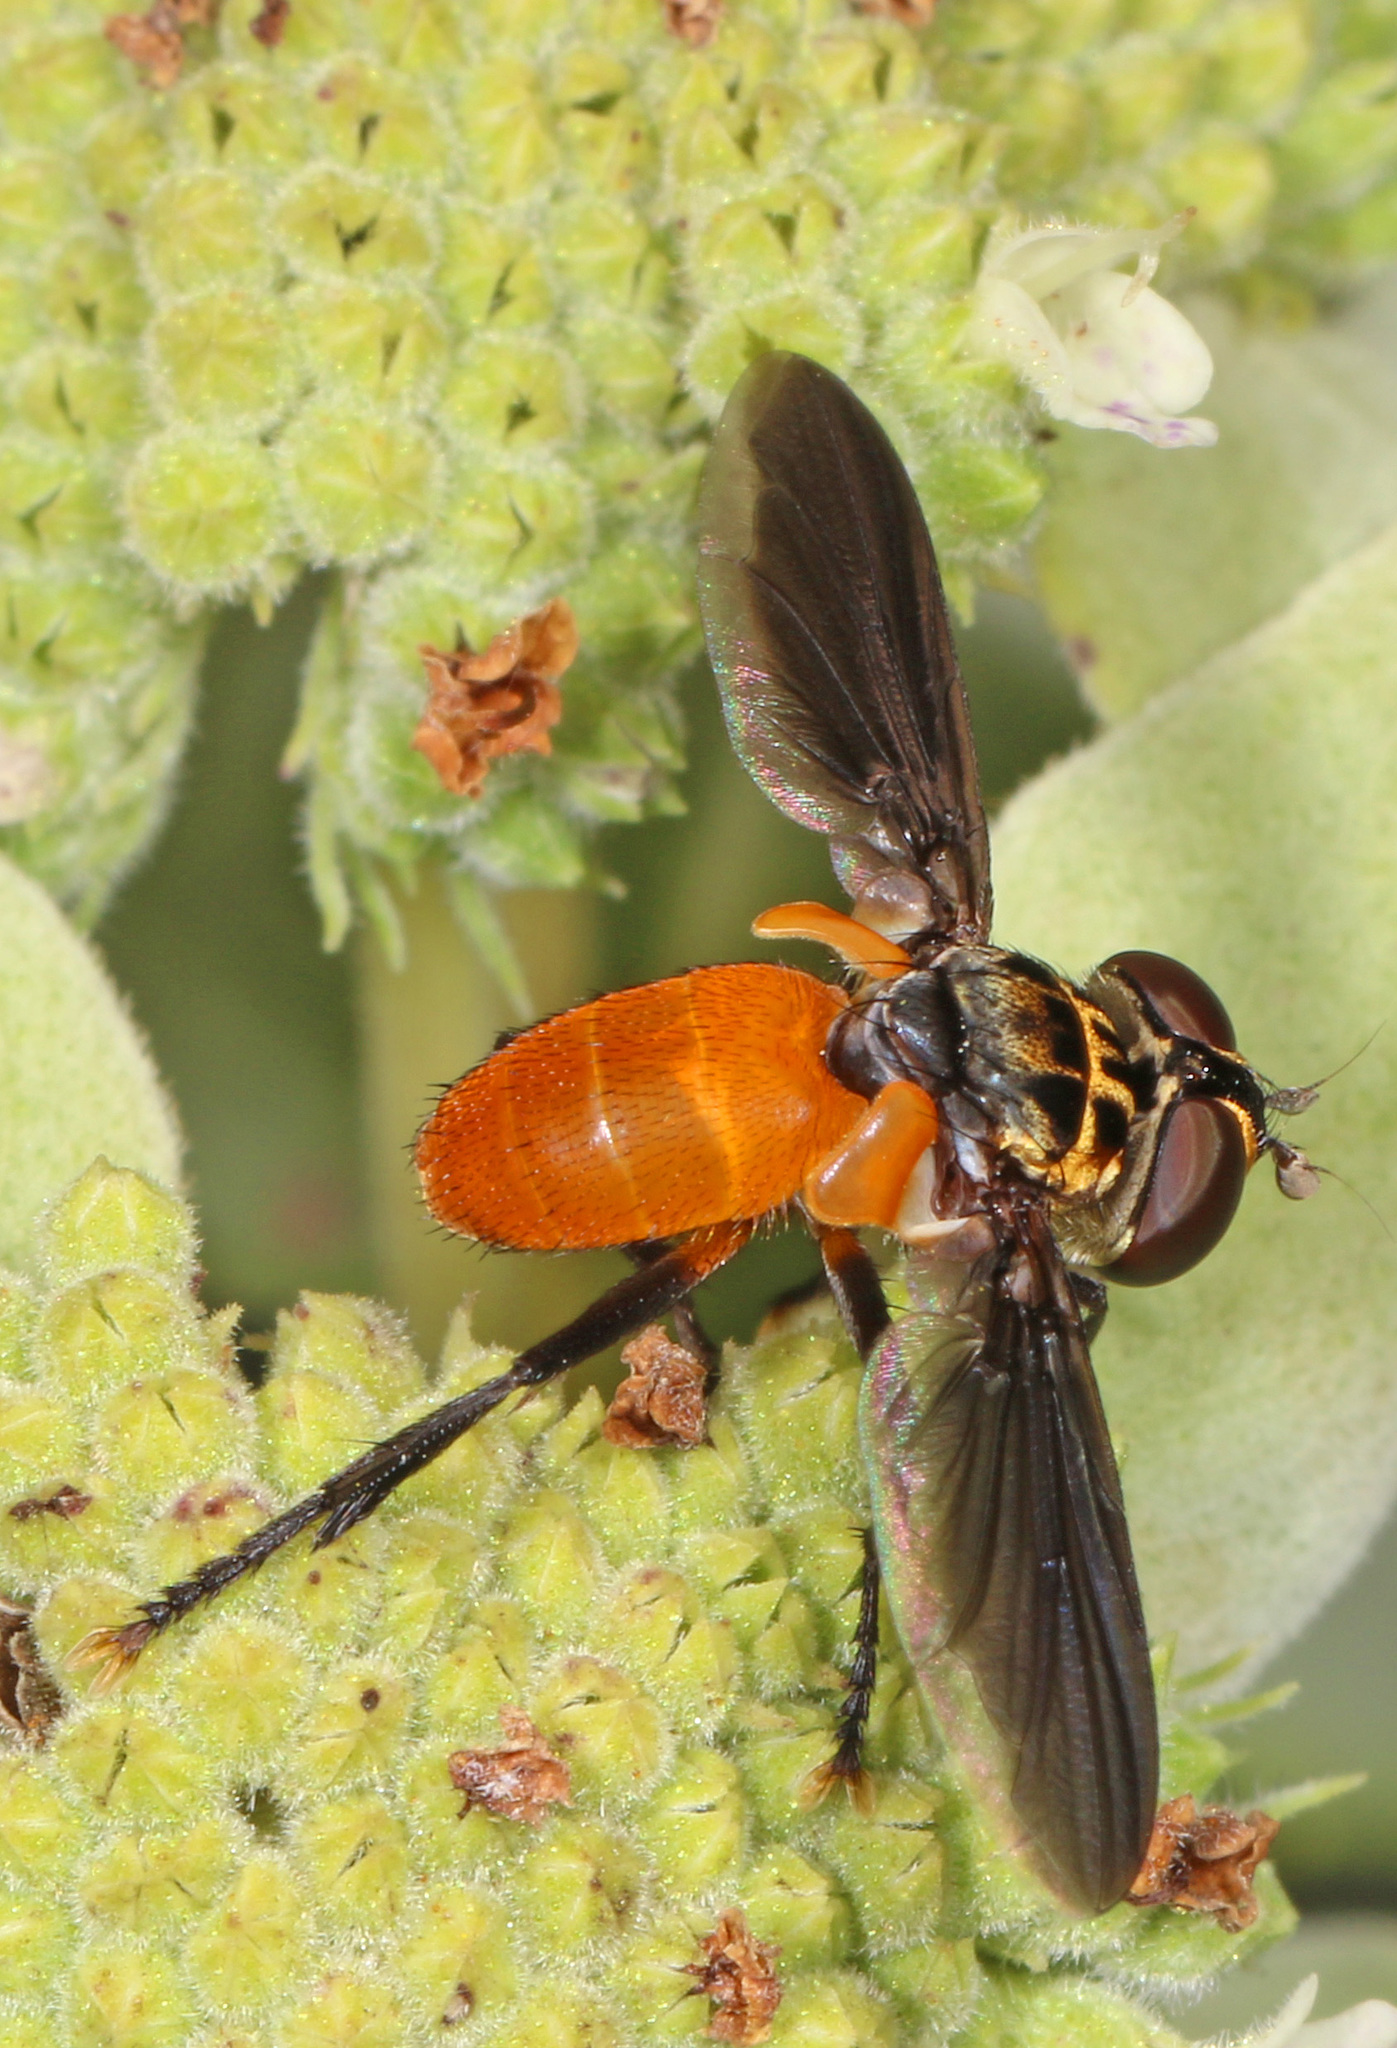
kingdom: Animalia
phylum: Arthropoda
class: Insecta
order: Diptera
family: Tachinidae
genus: Trichopoda
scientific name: Trichopoda pennipes
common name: Tachinid fly
